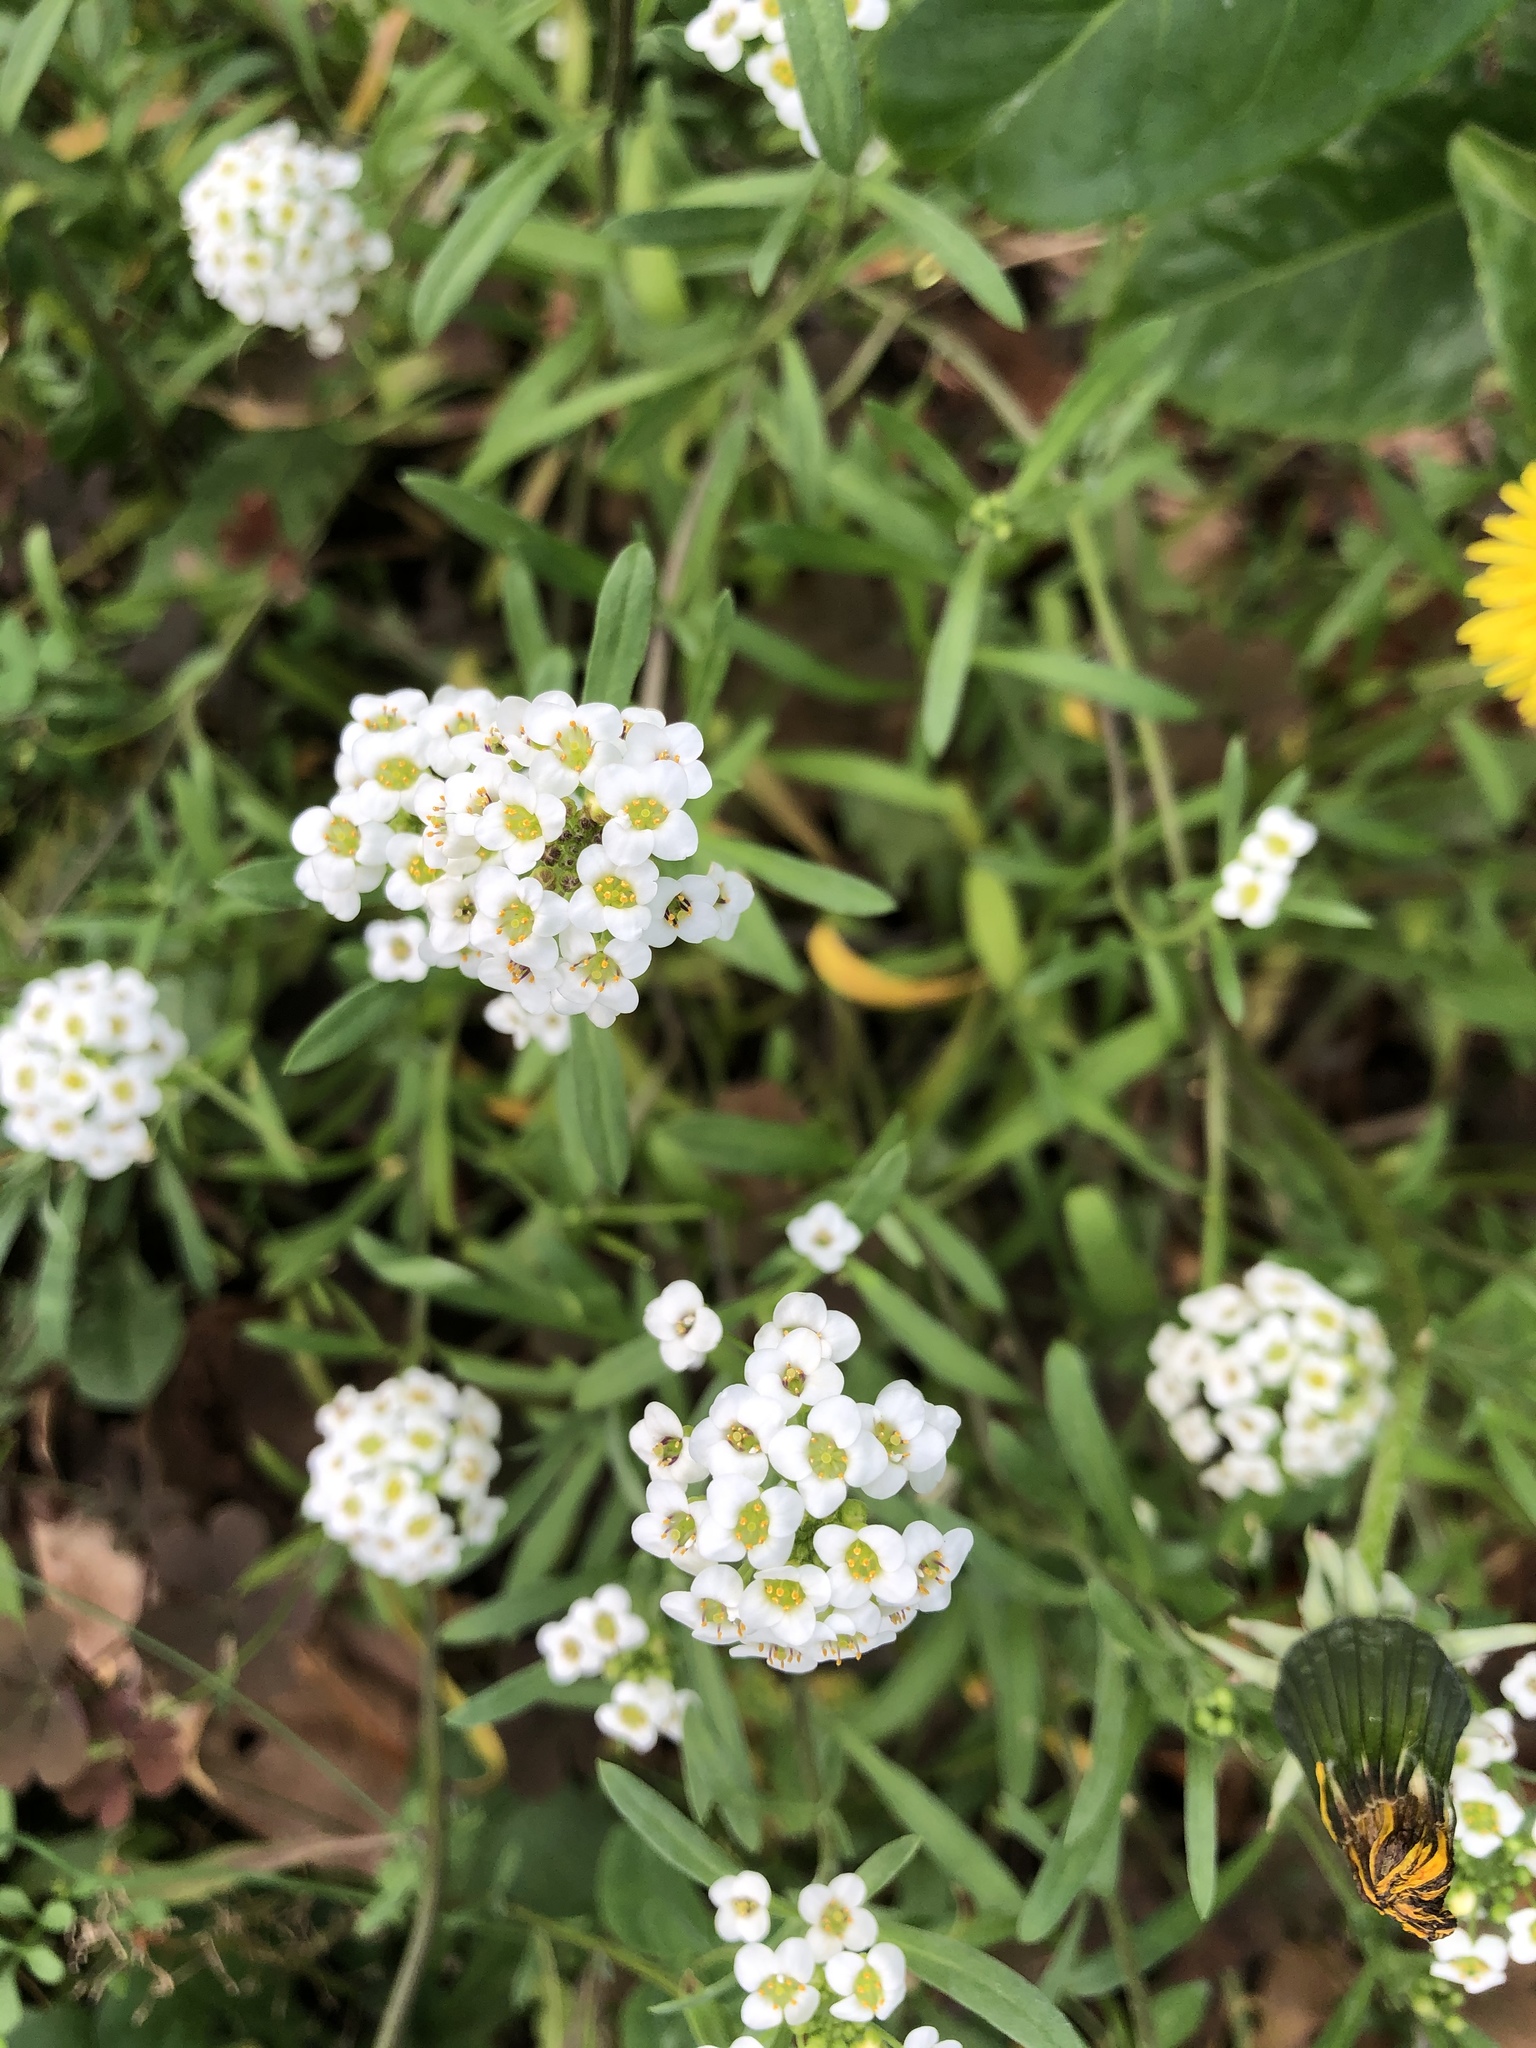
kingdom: Plantae
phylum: Tracheophyta
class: Magnoliopsida
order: Brassicales
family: Brassicaceae
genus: Lobularia
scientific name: Lobularia maritima
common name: Sweet alison
